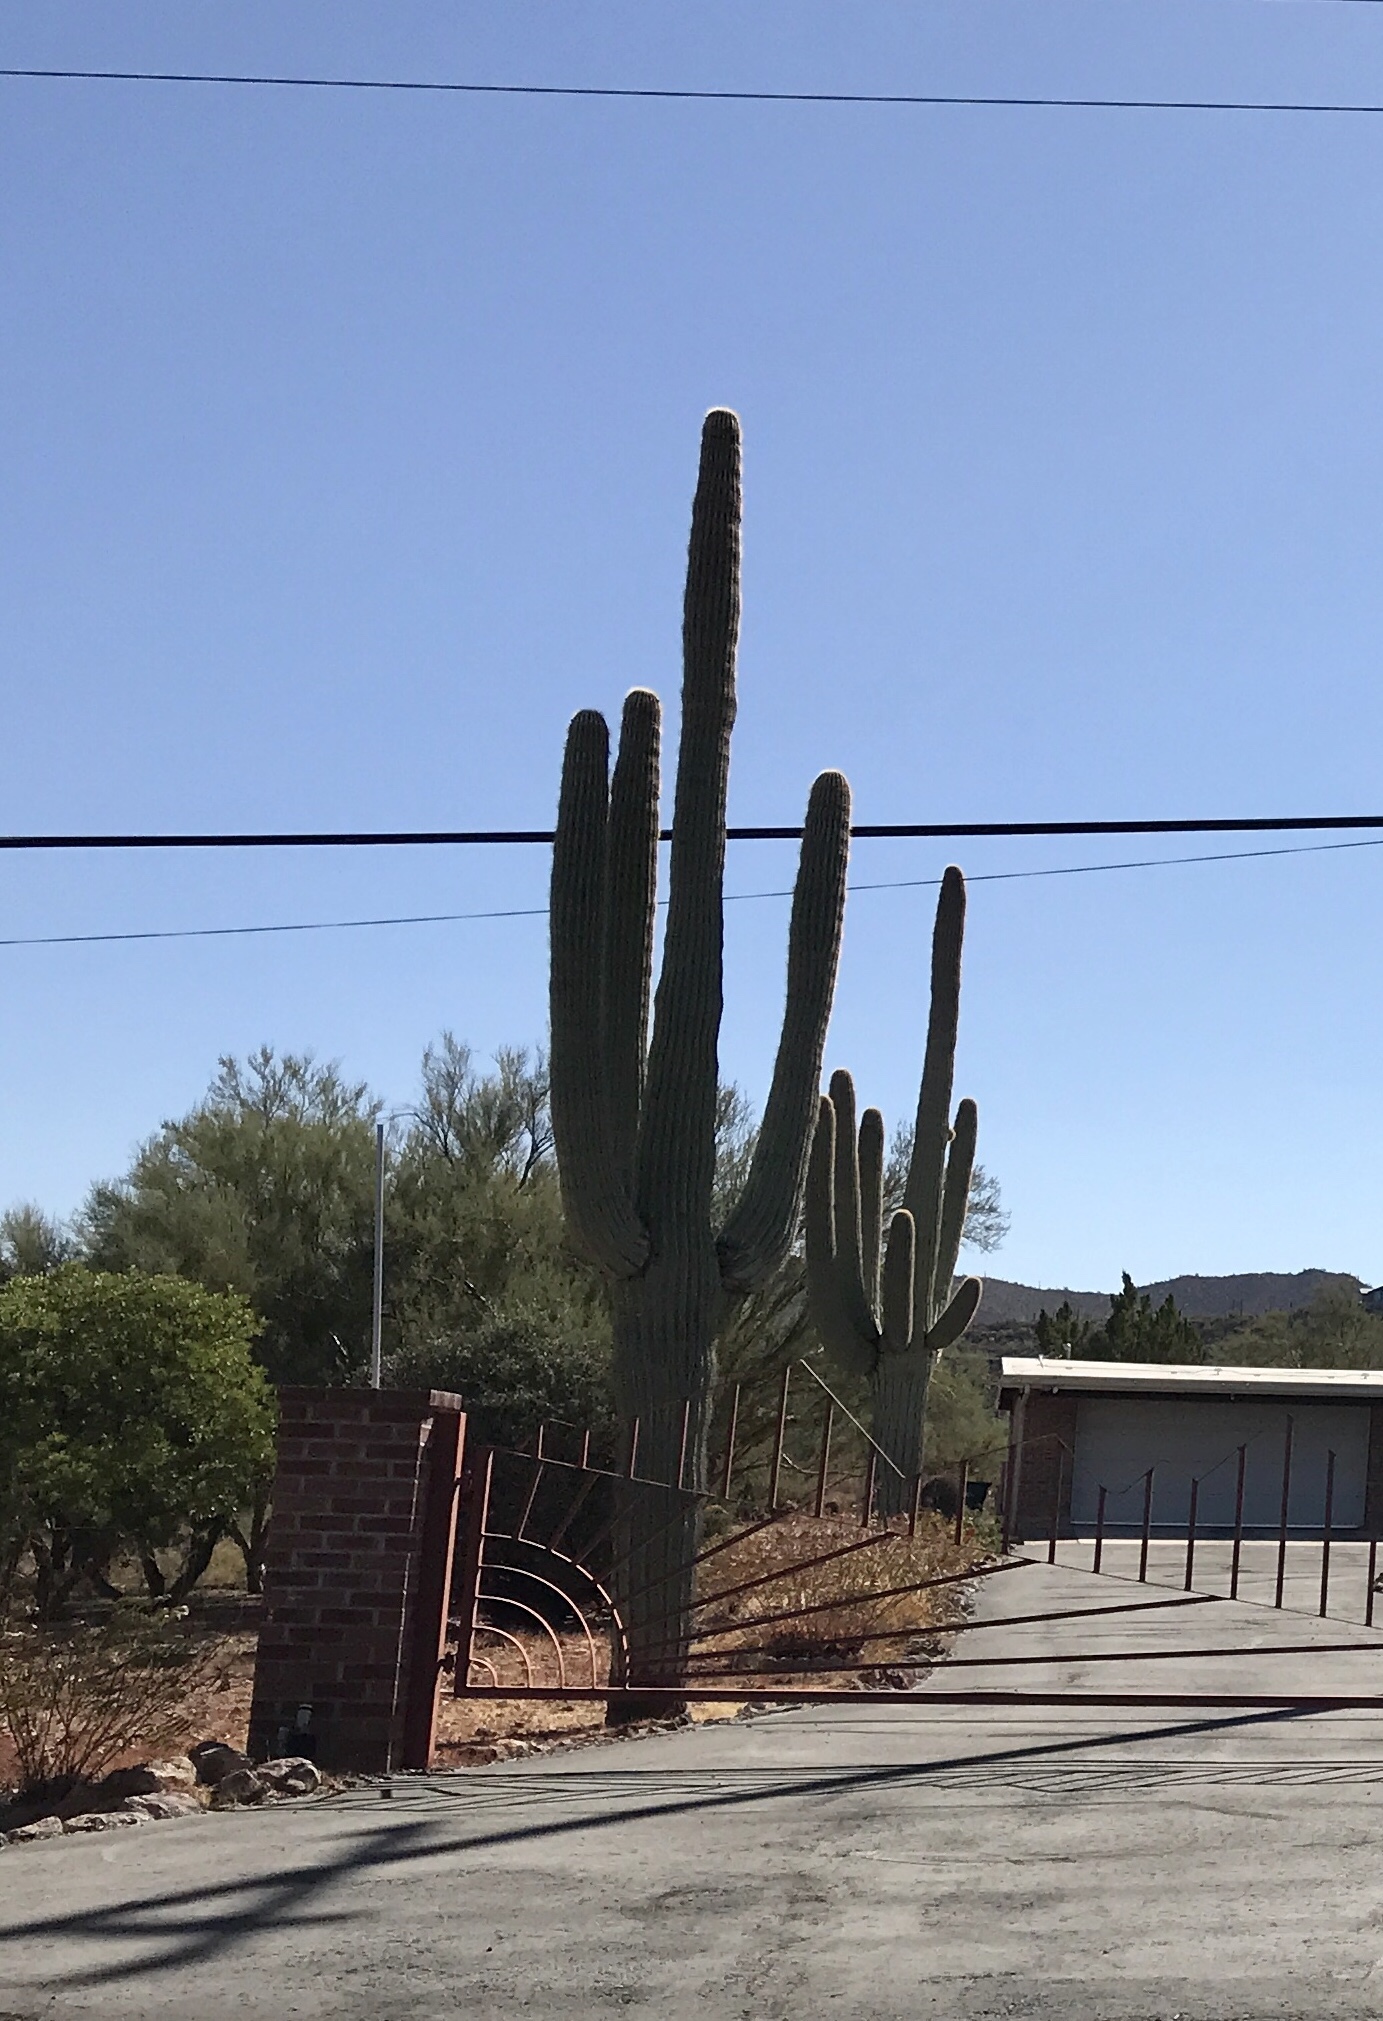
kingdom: Plantae
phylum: Tracheophyta
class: Magnoliopsida
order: Caryophyllales
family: Cactaceae
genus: Carnegiea
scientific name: Carnegiea gigantea
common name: Saguaro
